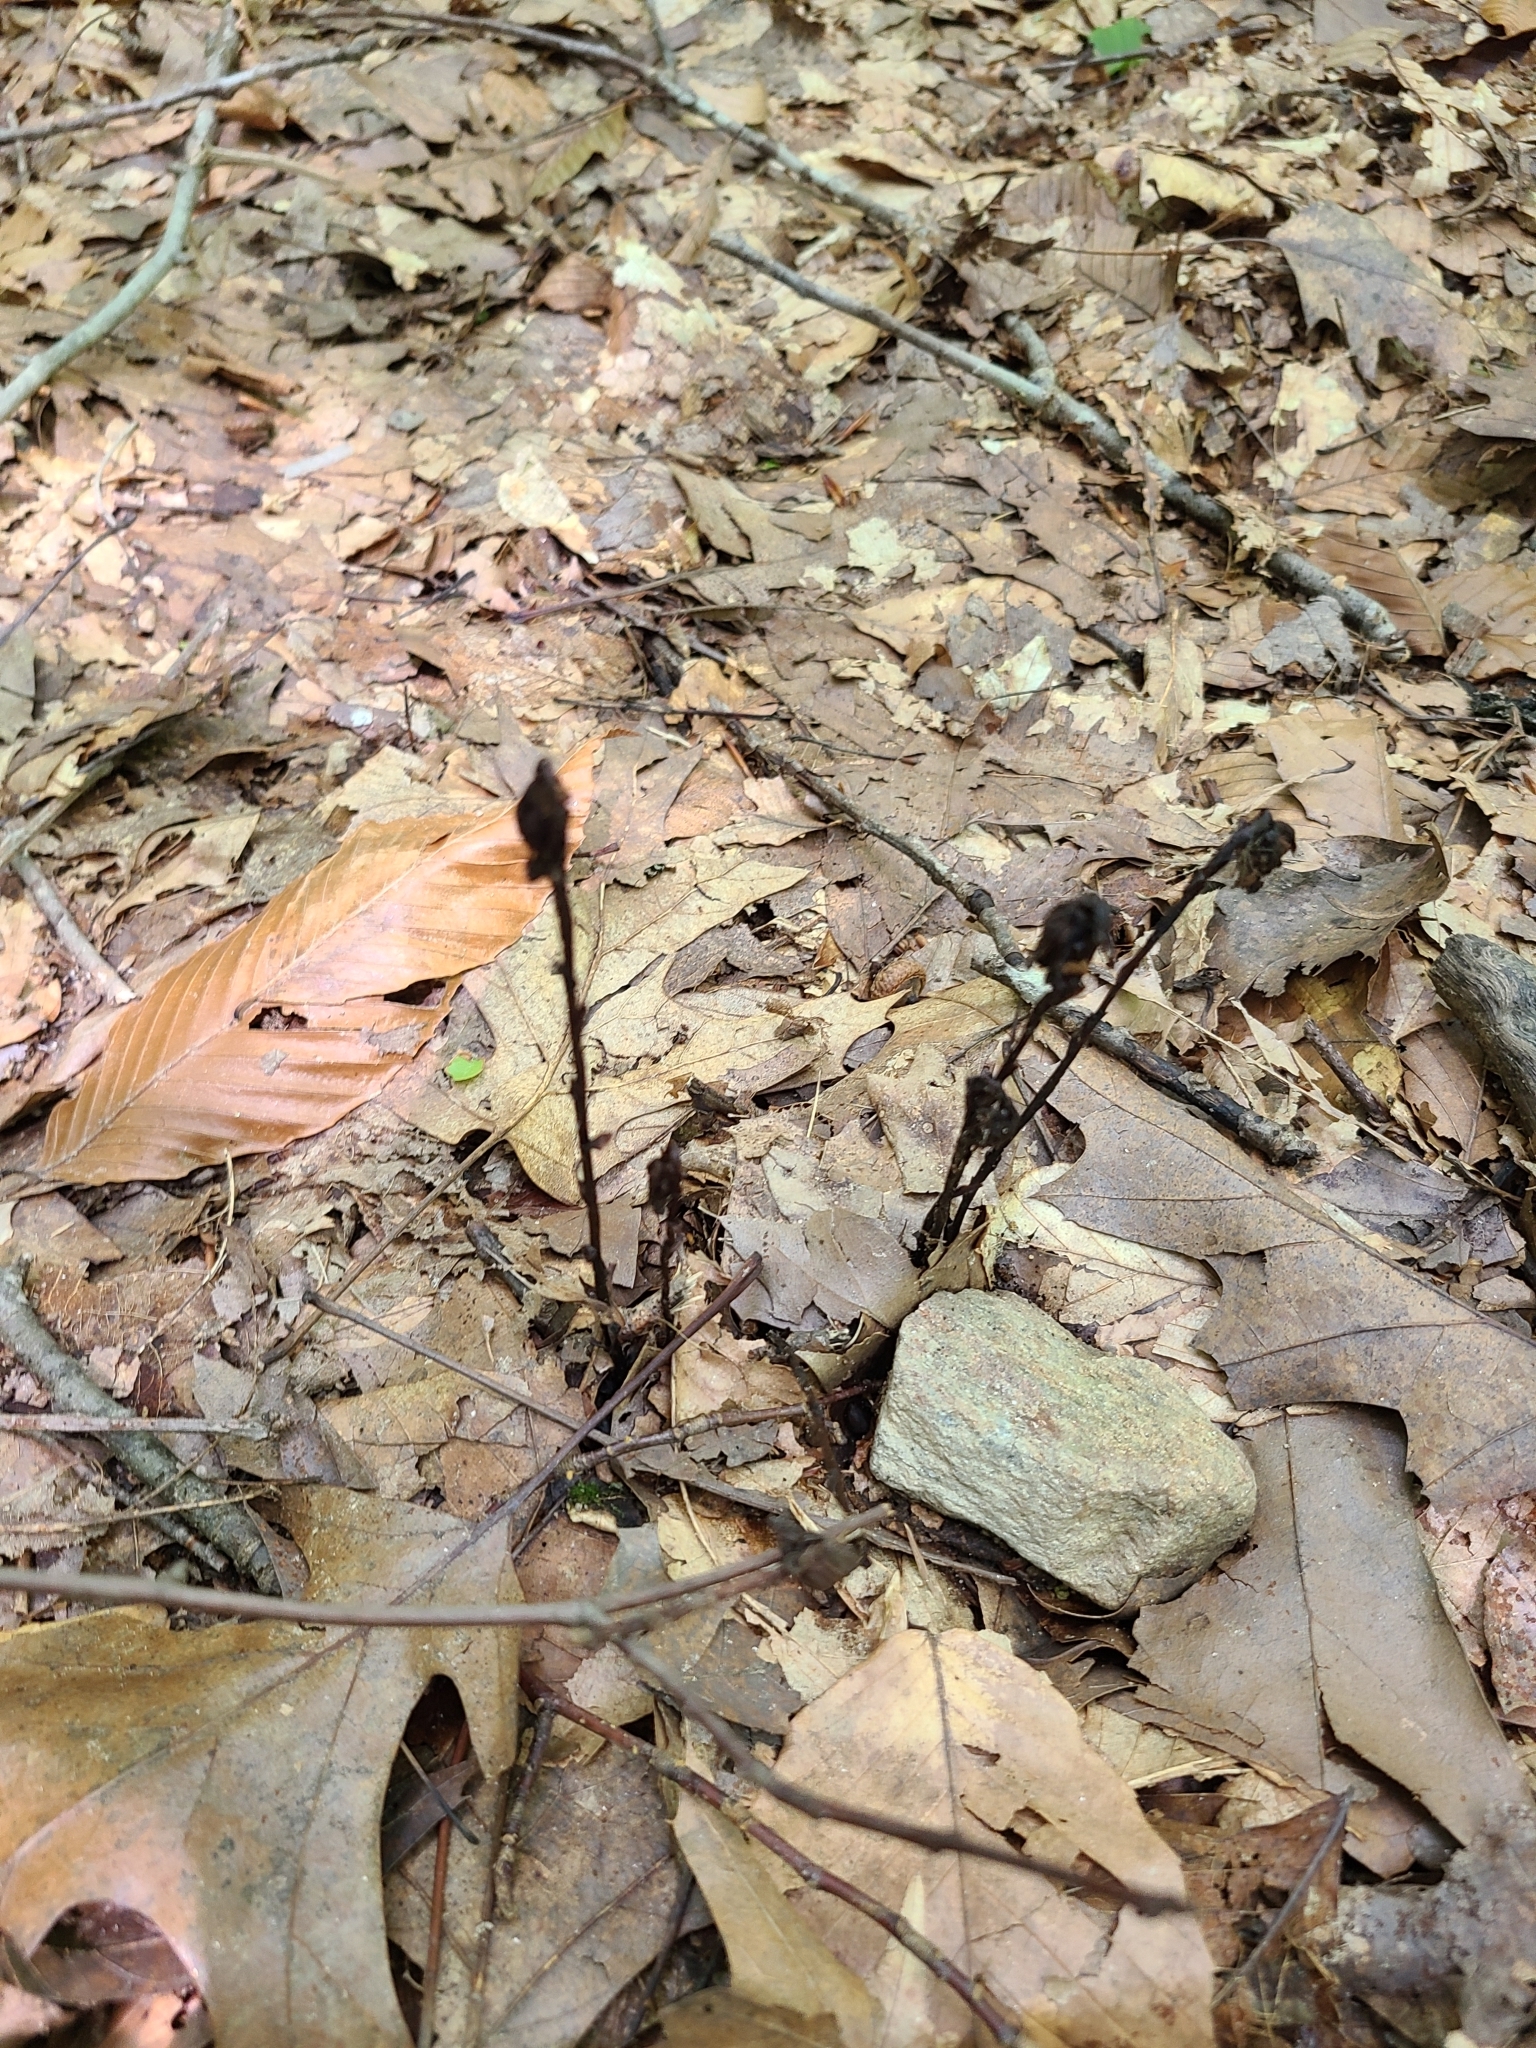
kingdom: Plantae
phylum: Tracheophyta
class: Magnoliopsida
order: Ericales
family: Ericaceae
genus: Monotropa
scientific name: Monotropa uniflora
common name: Convulsion root
